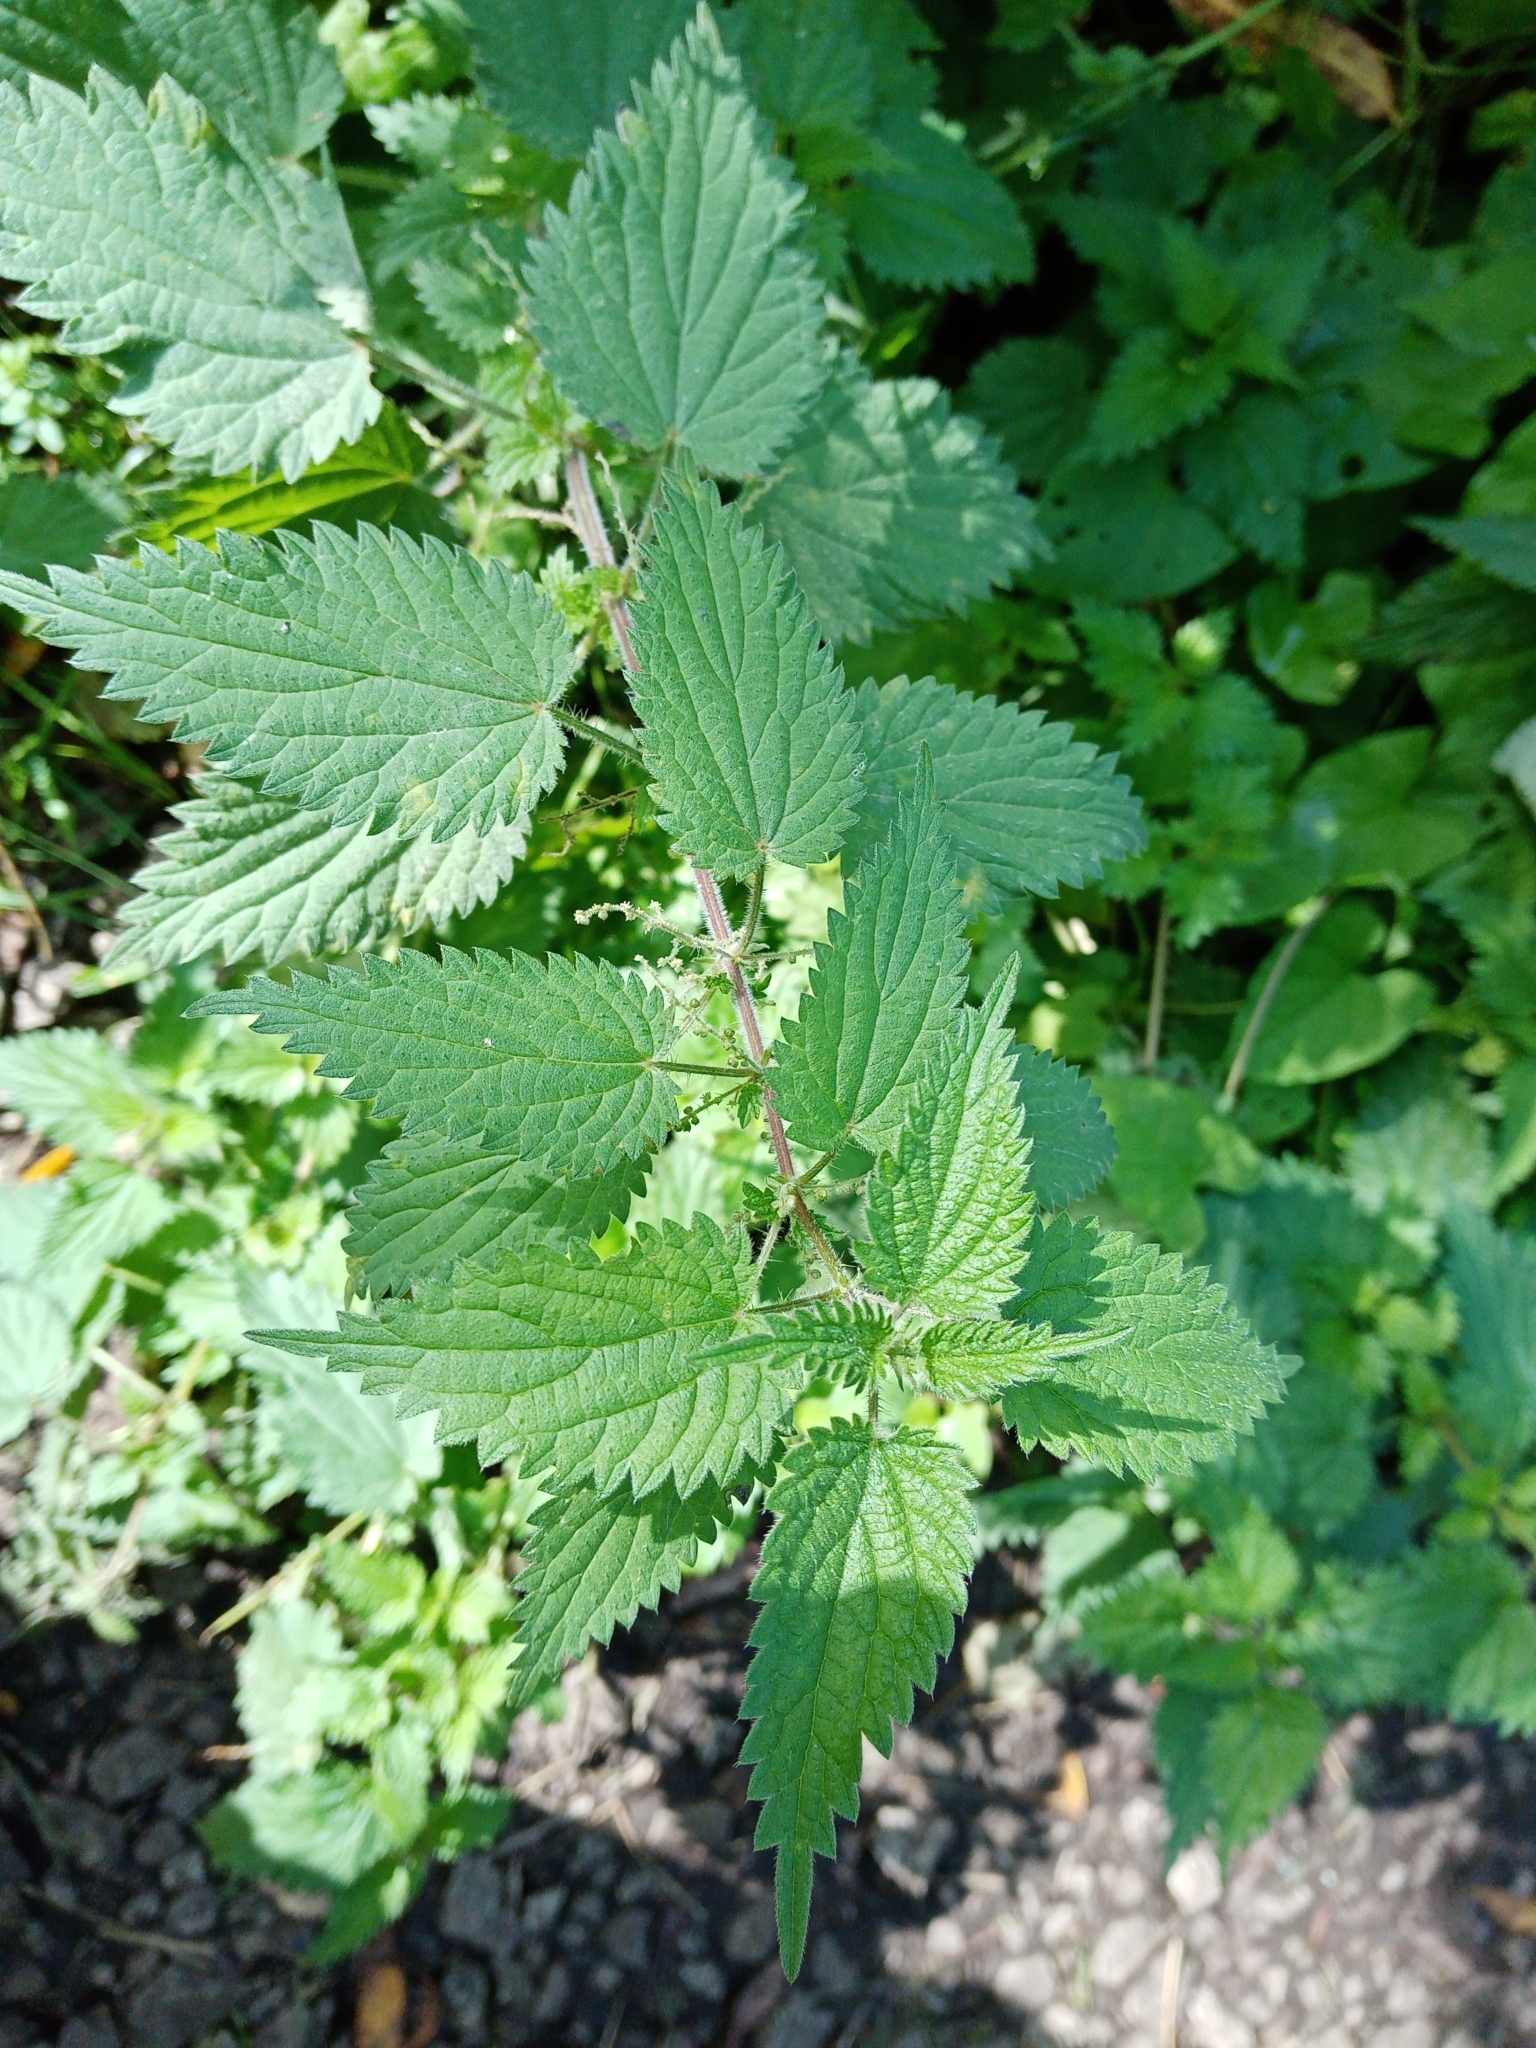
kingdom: Plantae
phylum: Tracheophyta
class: Magnoliopsida
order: Rosales
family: Urticaceae
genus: Urtica
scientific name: Urtica dioica
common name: Common nettle
